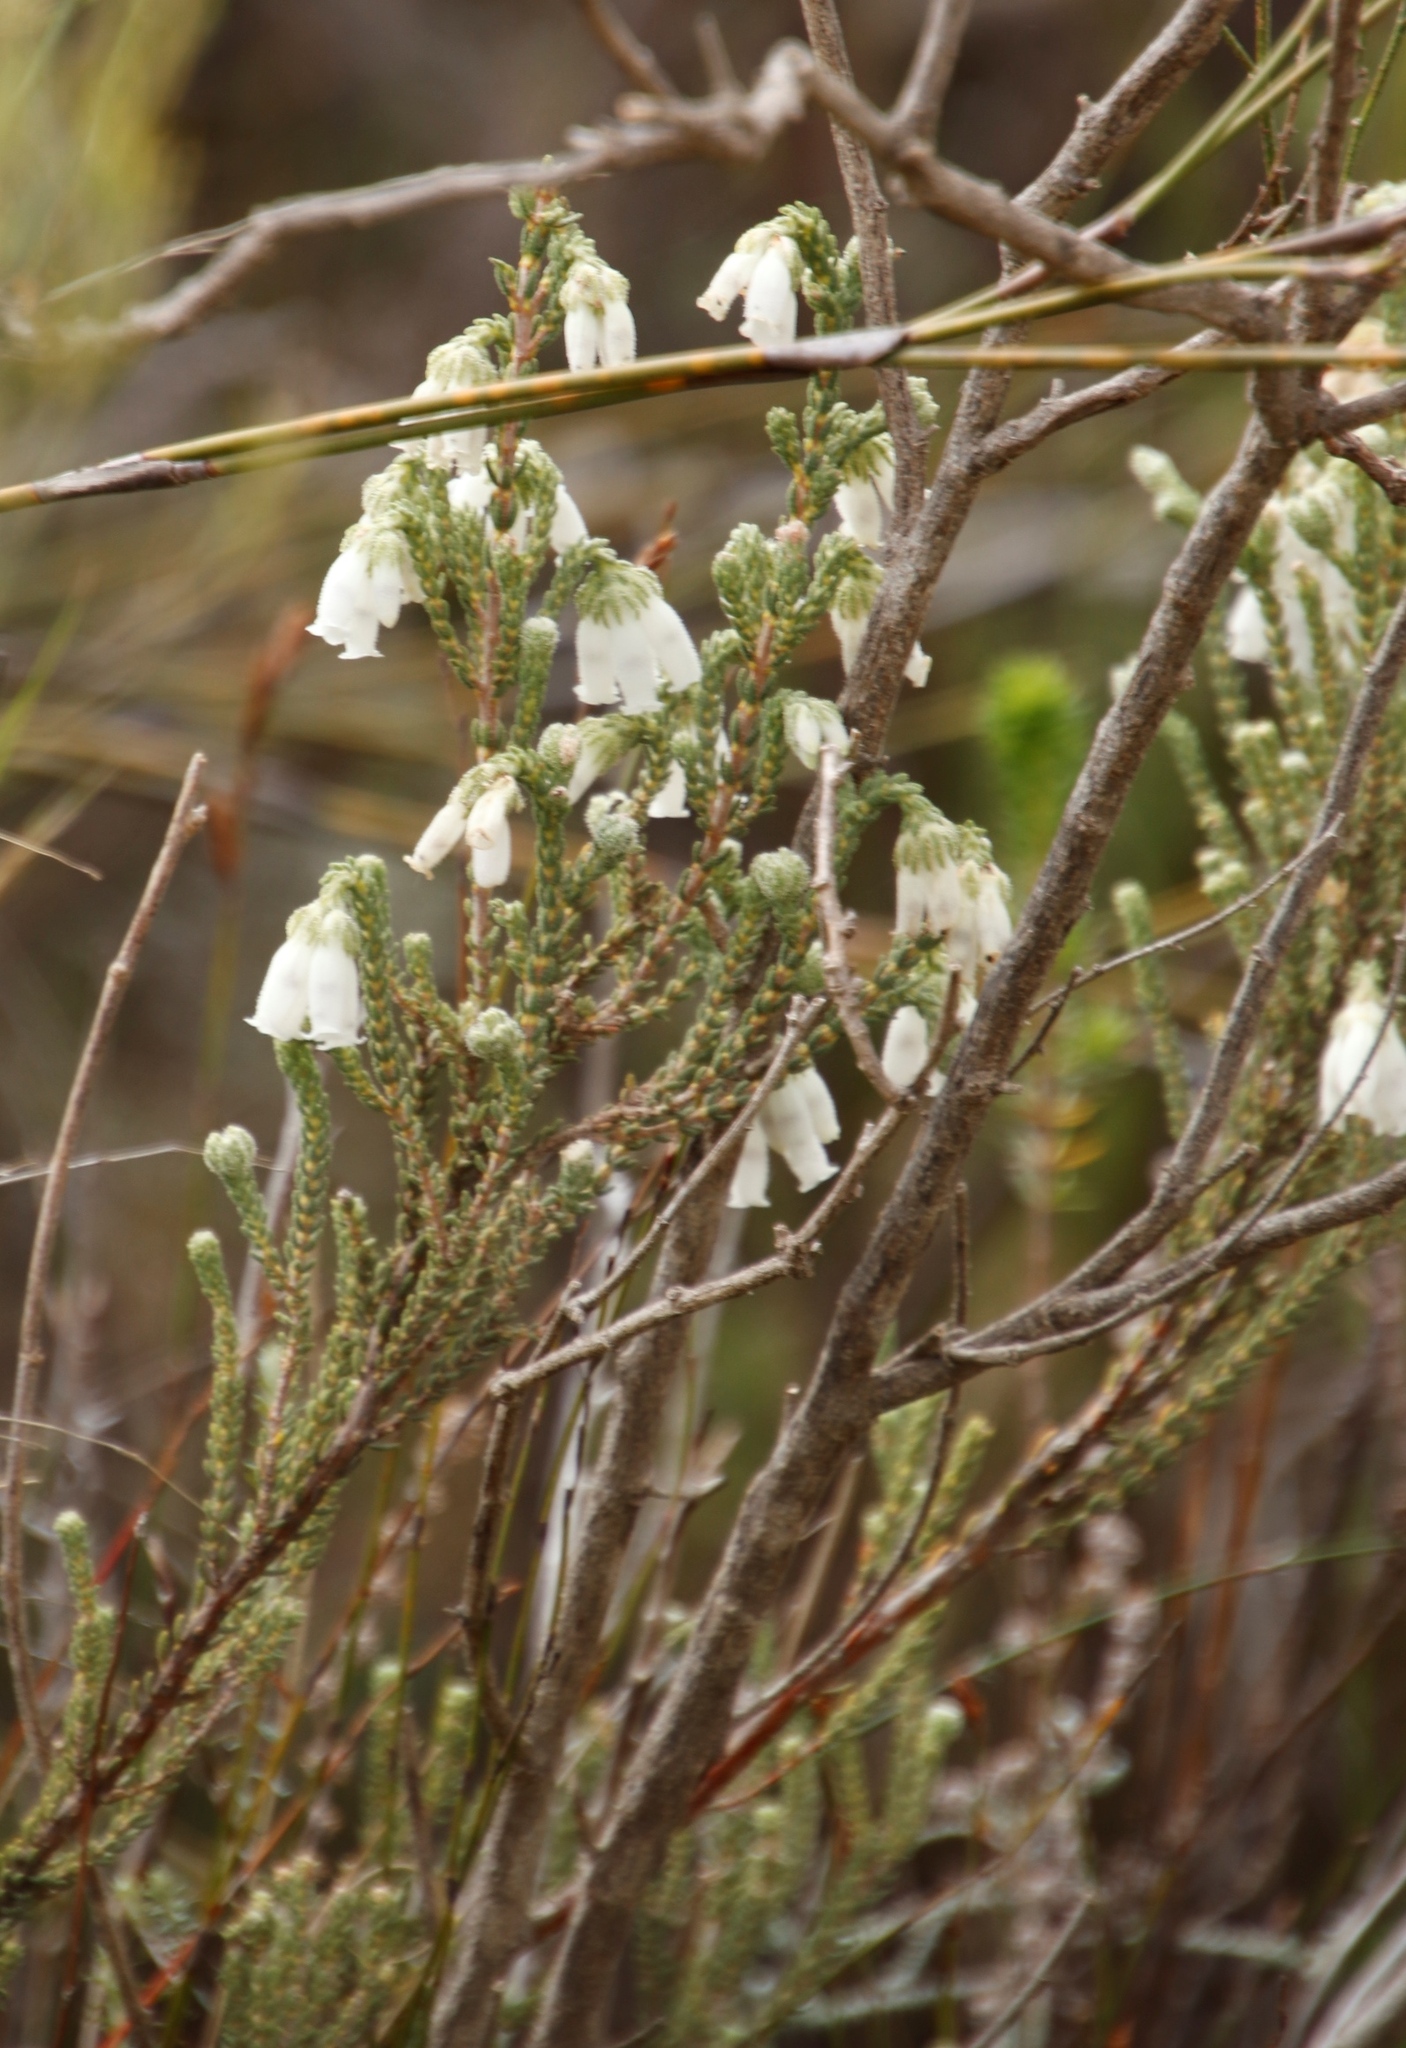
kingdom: Plantae
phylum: Tracheophyta
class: Magnoliopsida
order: Ericales
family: Ericaceae
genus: Erica
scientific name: Erica strigilifolia
